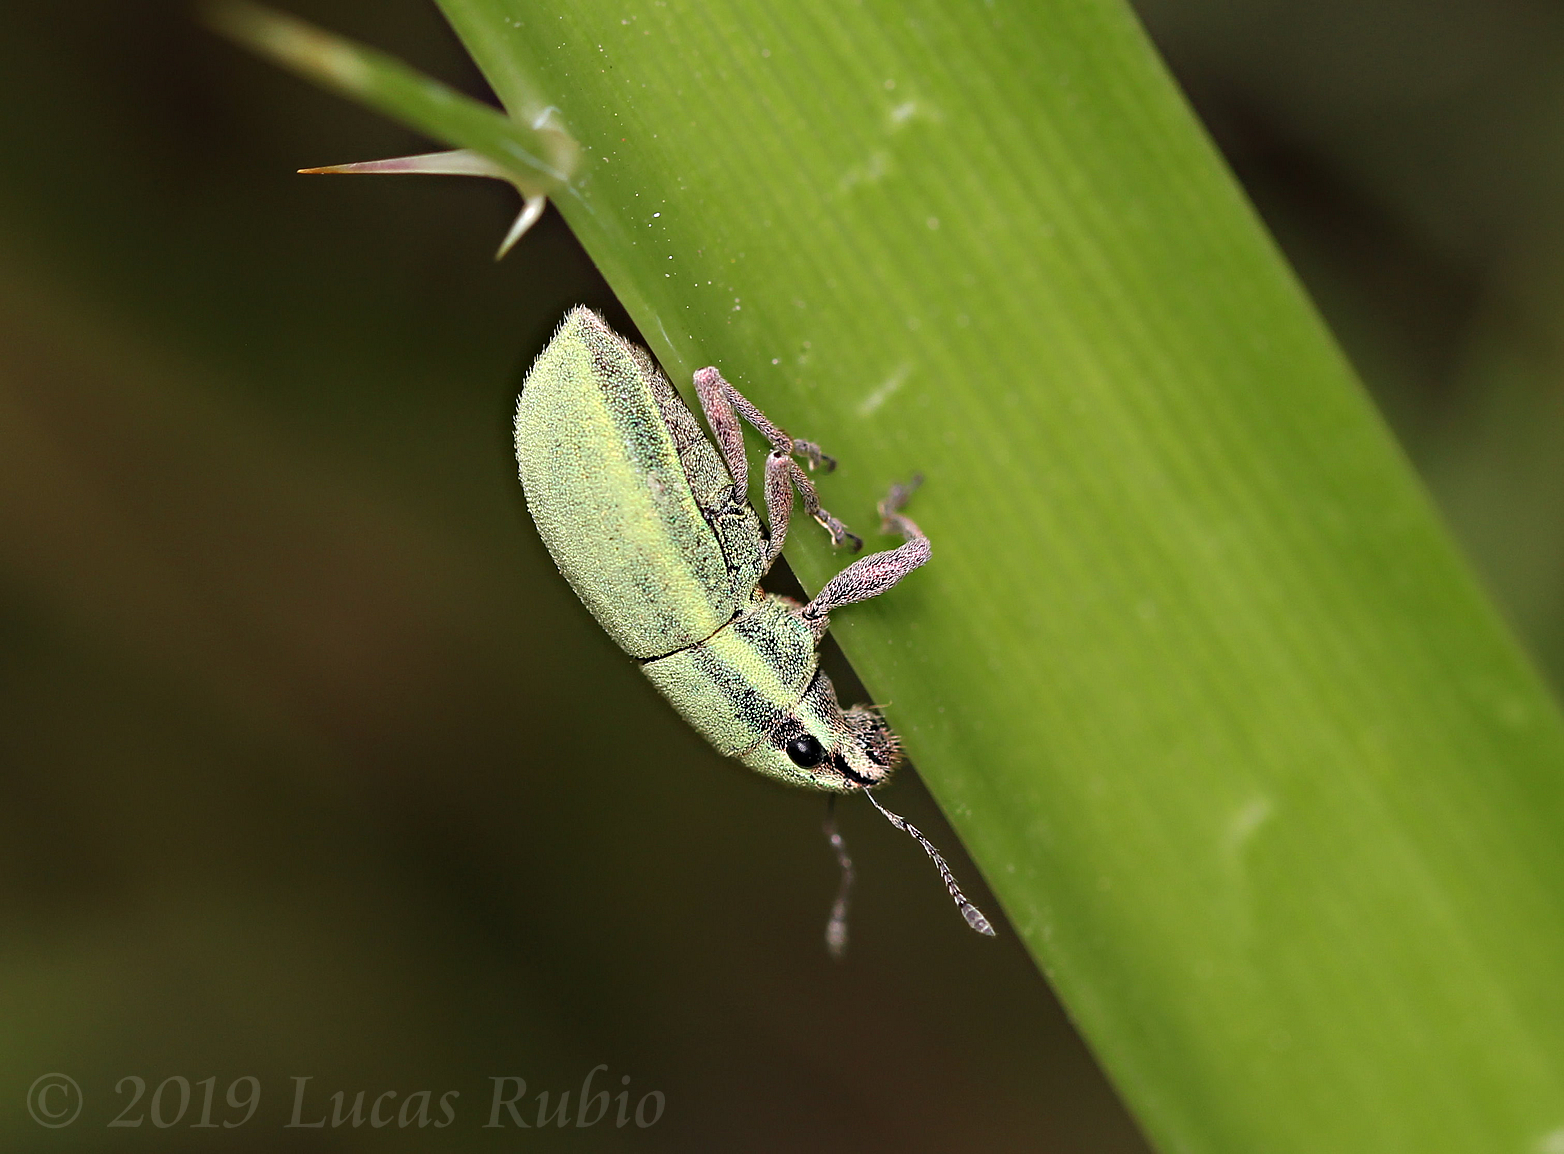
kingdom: Animalia
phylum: Arthropoda
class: Insecta
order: Coleoptera
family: Curculionidae
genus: Pantomorus
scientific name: Pantomorus viridisquamosus
